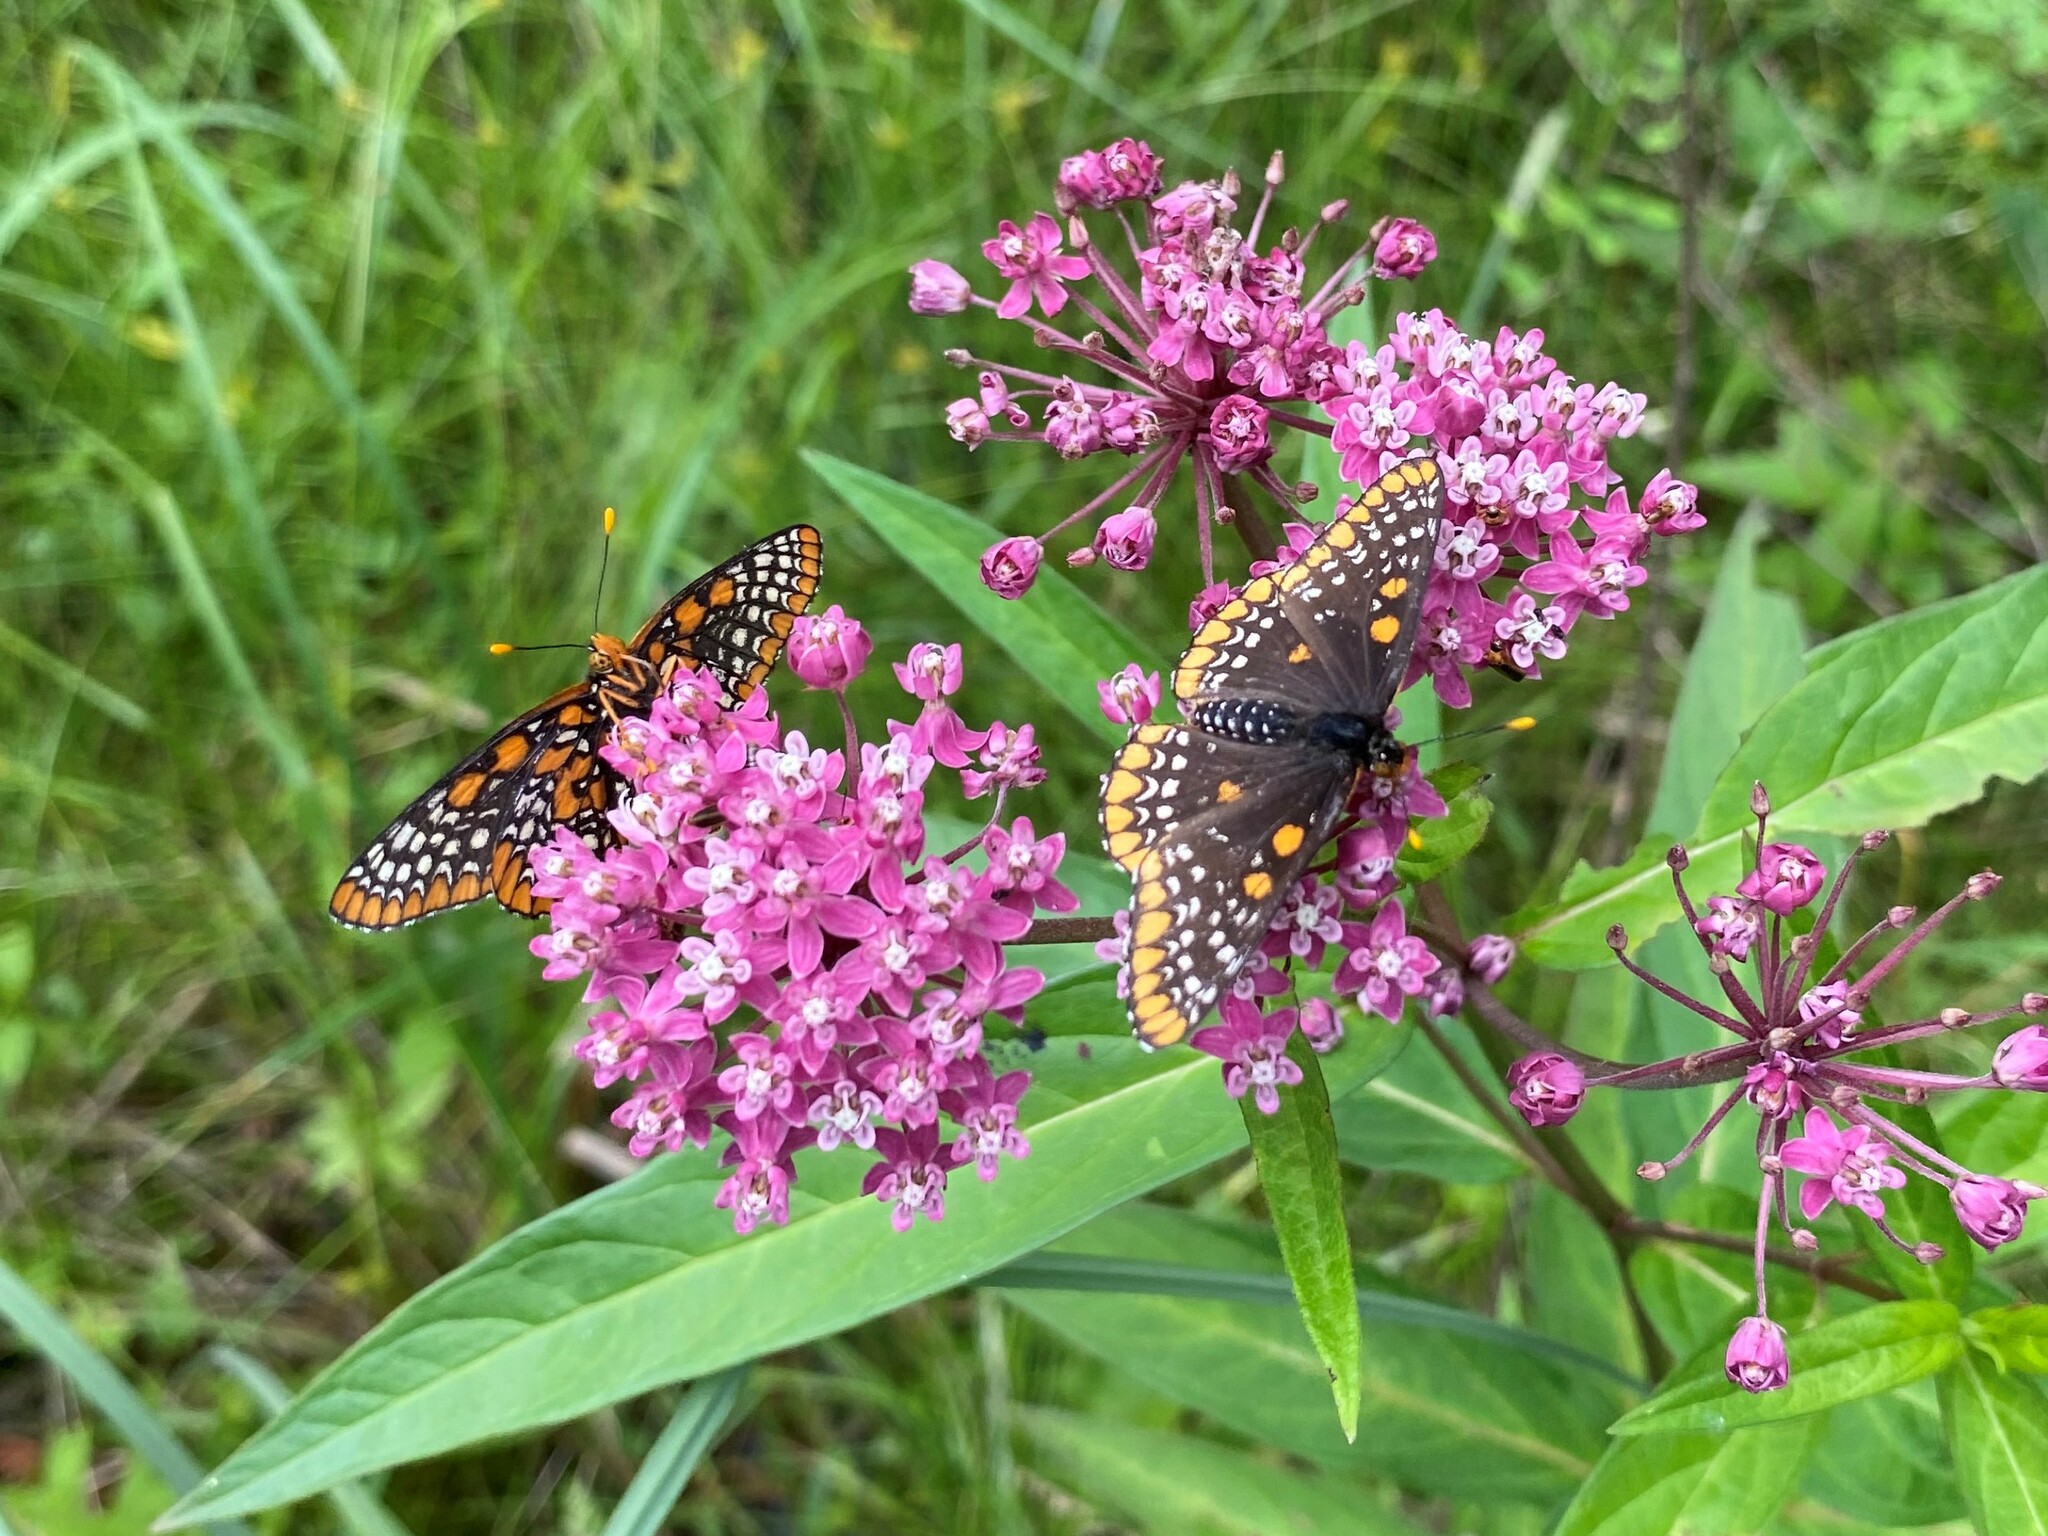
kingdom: Animalia
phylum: Arthropoda
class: Insecta
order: Lepidoptera
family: Nymphalidae
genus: Euphydryas
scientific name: Euphydryas phaeton
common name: Baltimore checkerspot
